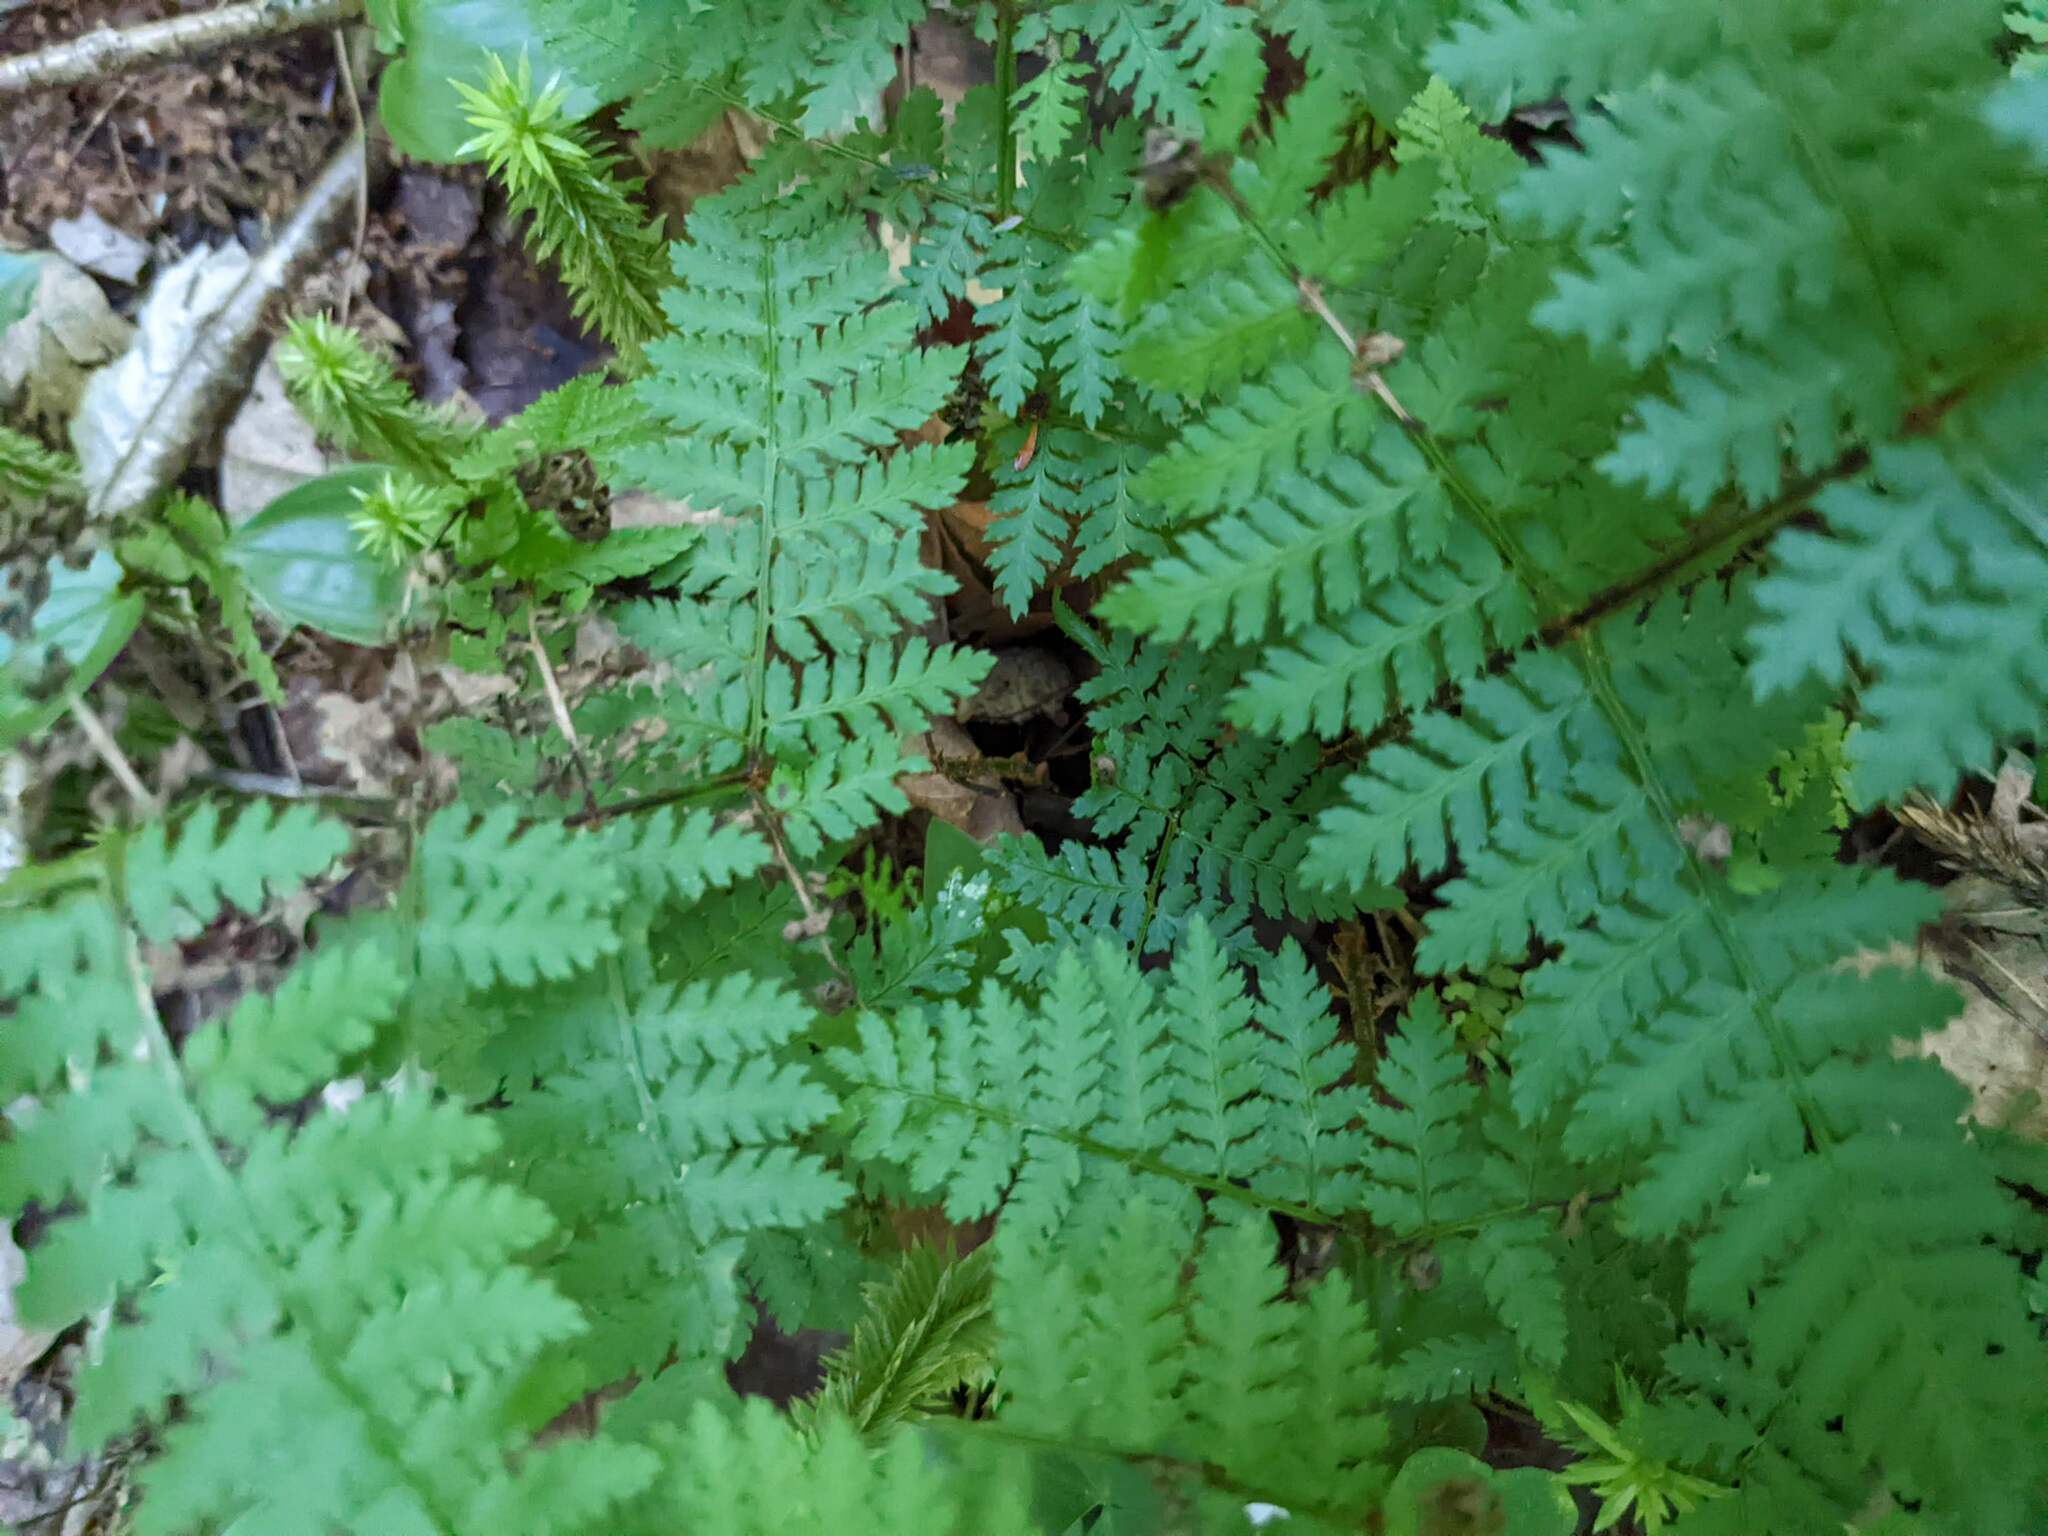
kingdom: Plantae
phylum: Tracheophyta
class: Polypodiopsida
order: Polypodiales
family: Dryopteridaceae
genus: Dryopteris
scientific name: Dryopteris intermedia
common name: Evergreen wood fern
